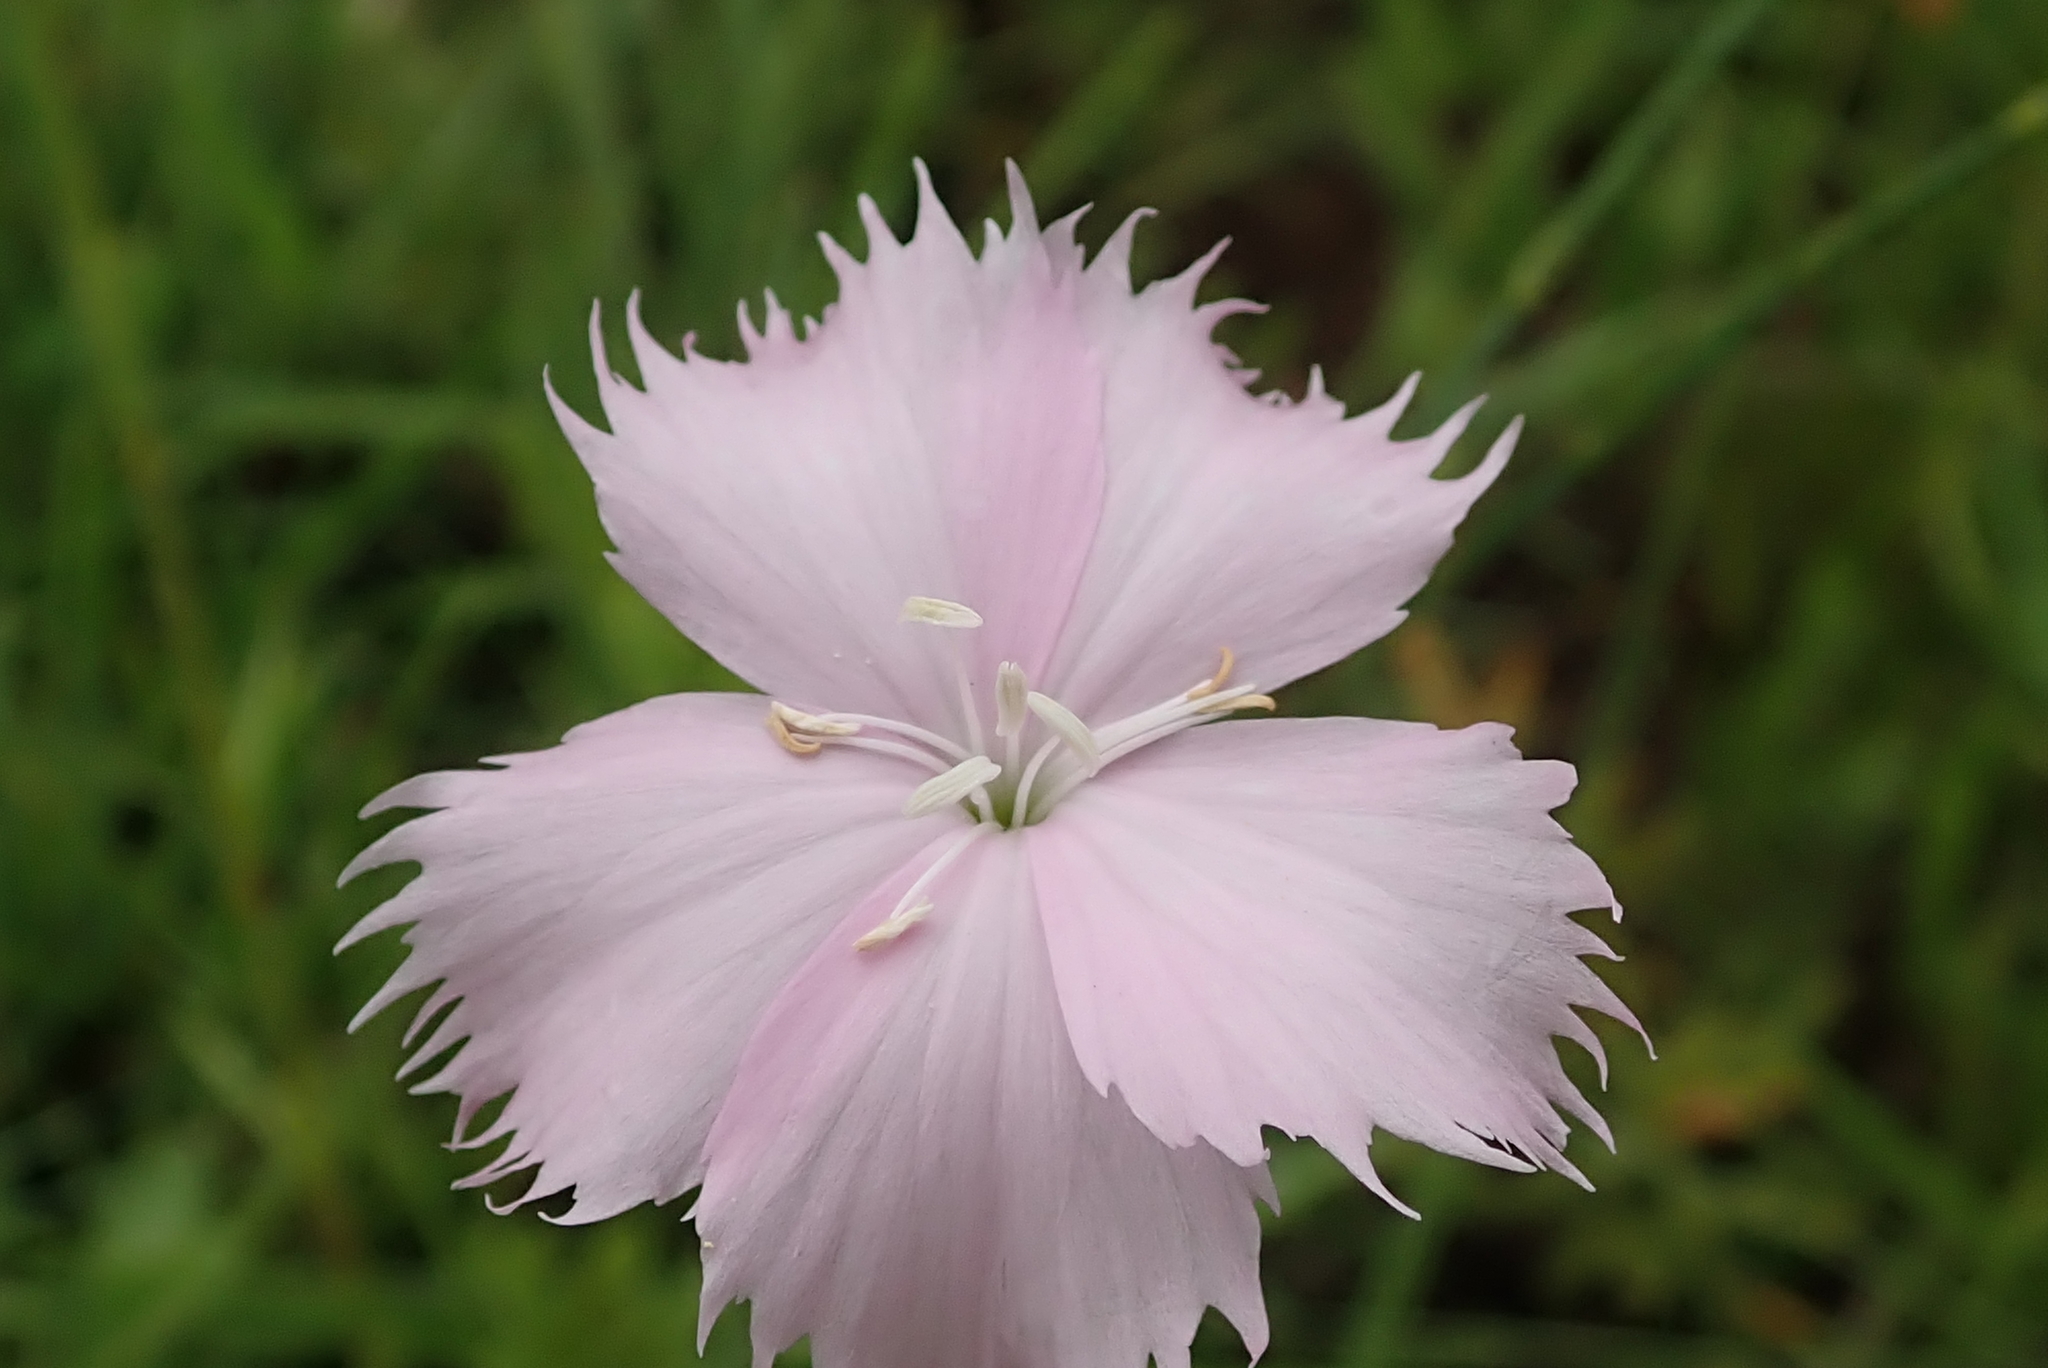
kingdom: Plantae
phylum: Tracheophyta
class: Magnoliopsida
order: Caryophyllales
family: Caryophyllaceae
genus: Dianthus
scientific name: Dianthus zeyheri
